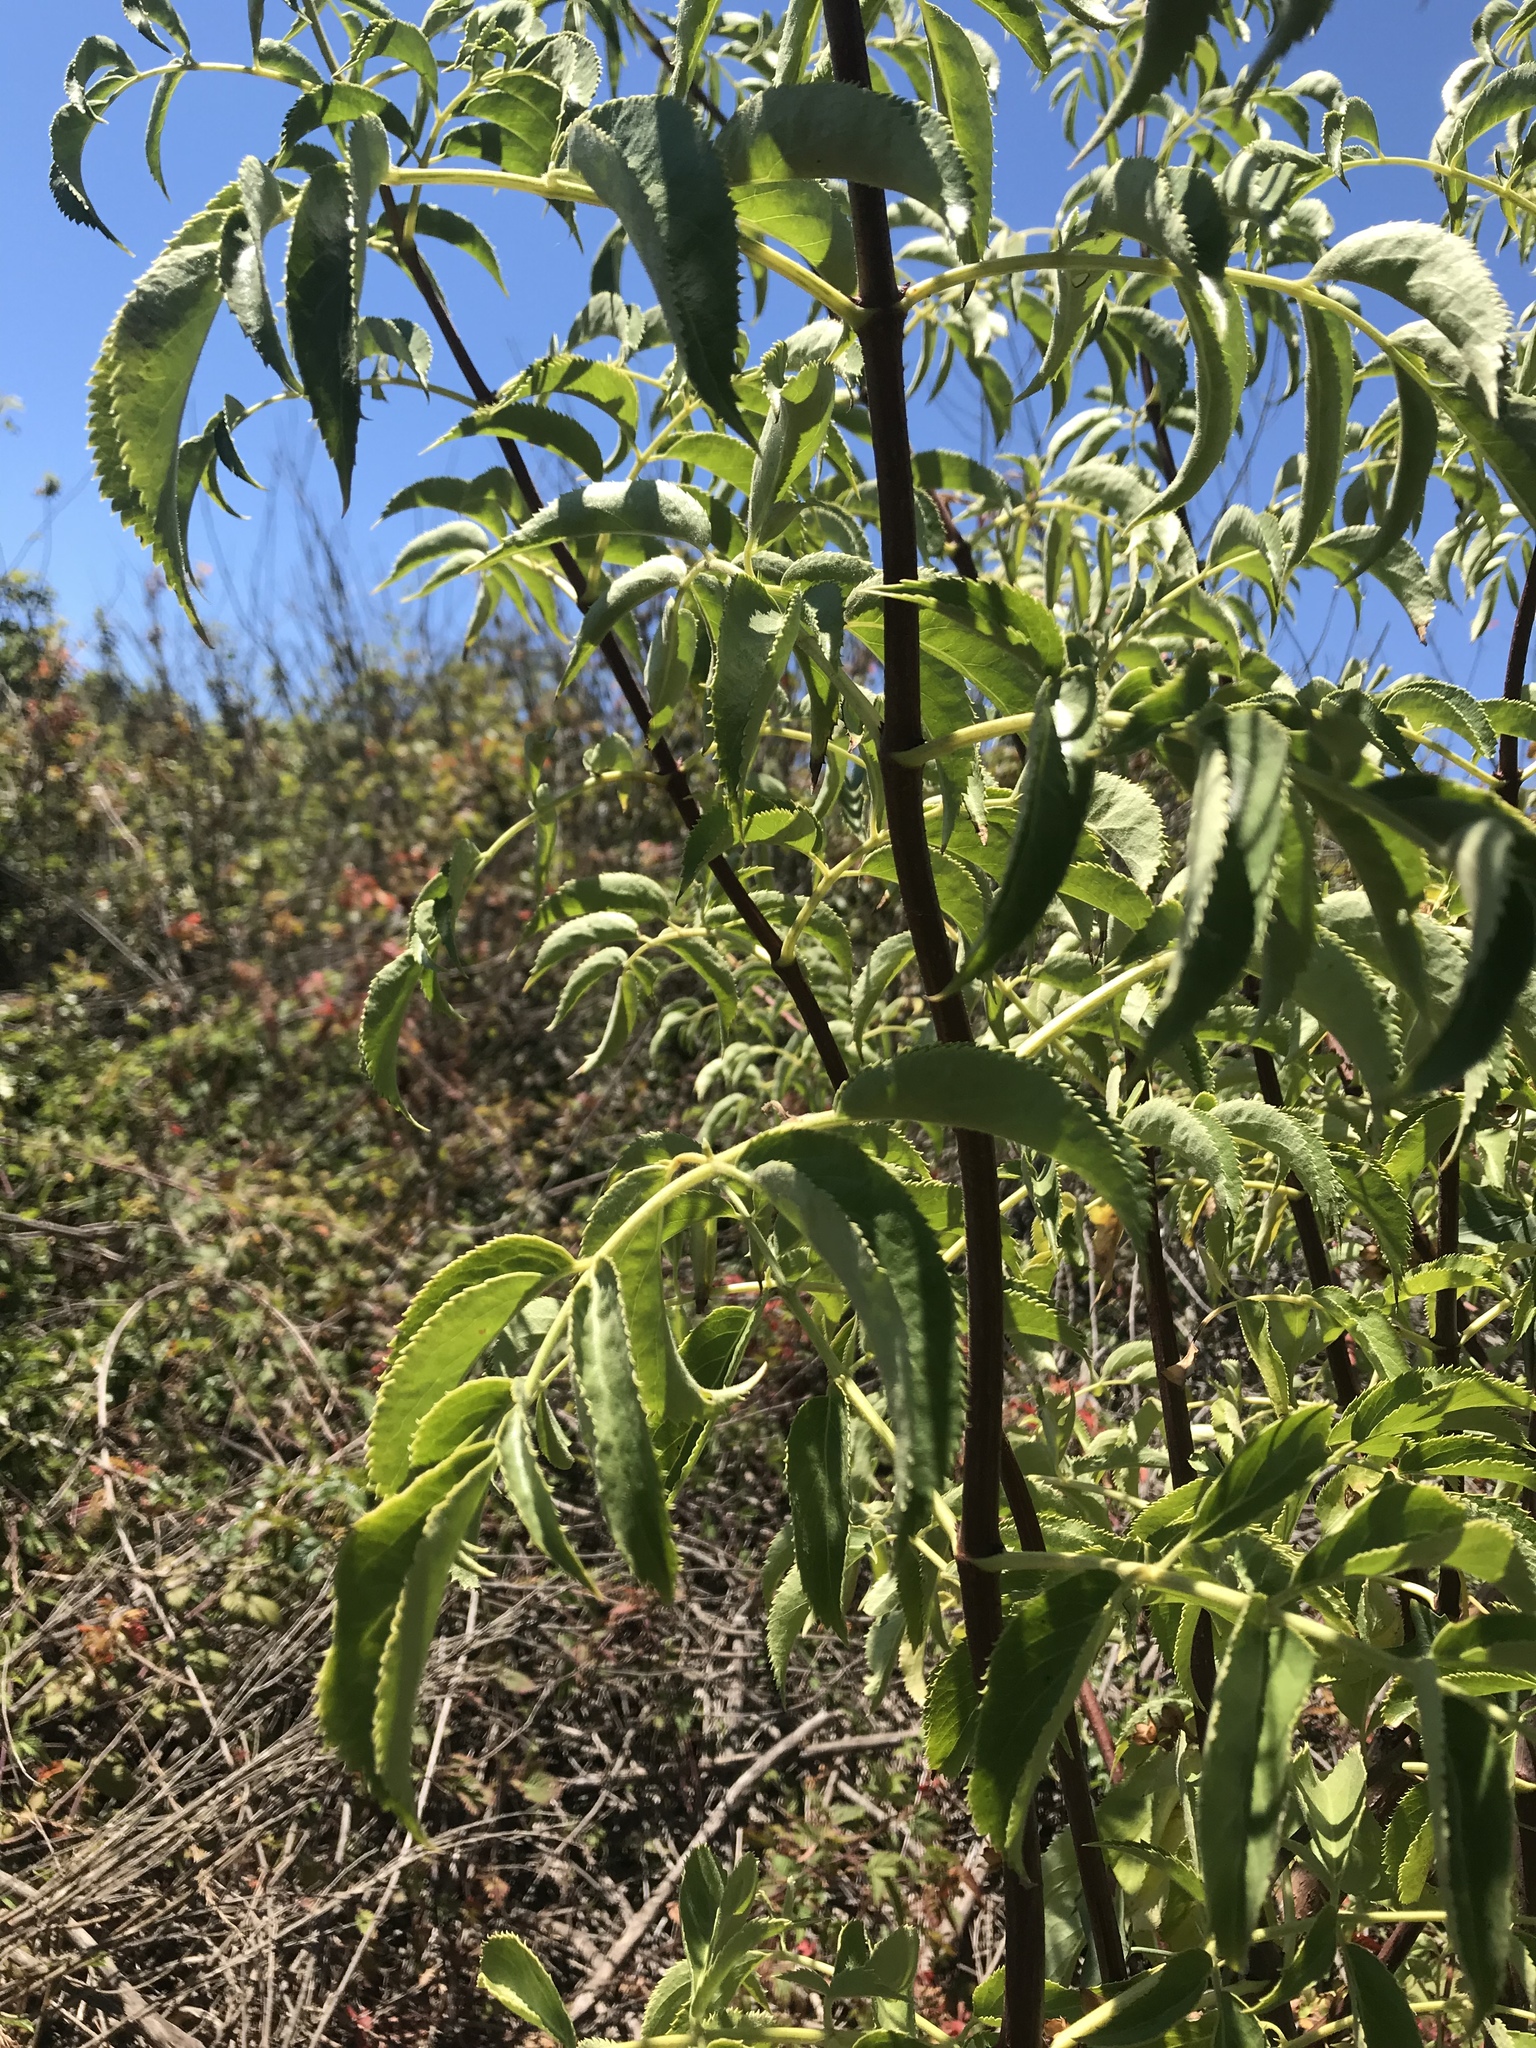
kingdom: Plantae
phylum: Tracheophyta
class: Magnoliopsida
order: Dipsacales
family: Viburnaceae
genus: Sambucus
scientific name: Sambucus cerulea
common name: Blue elder
